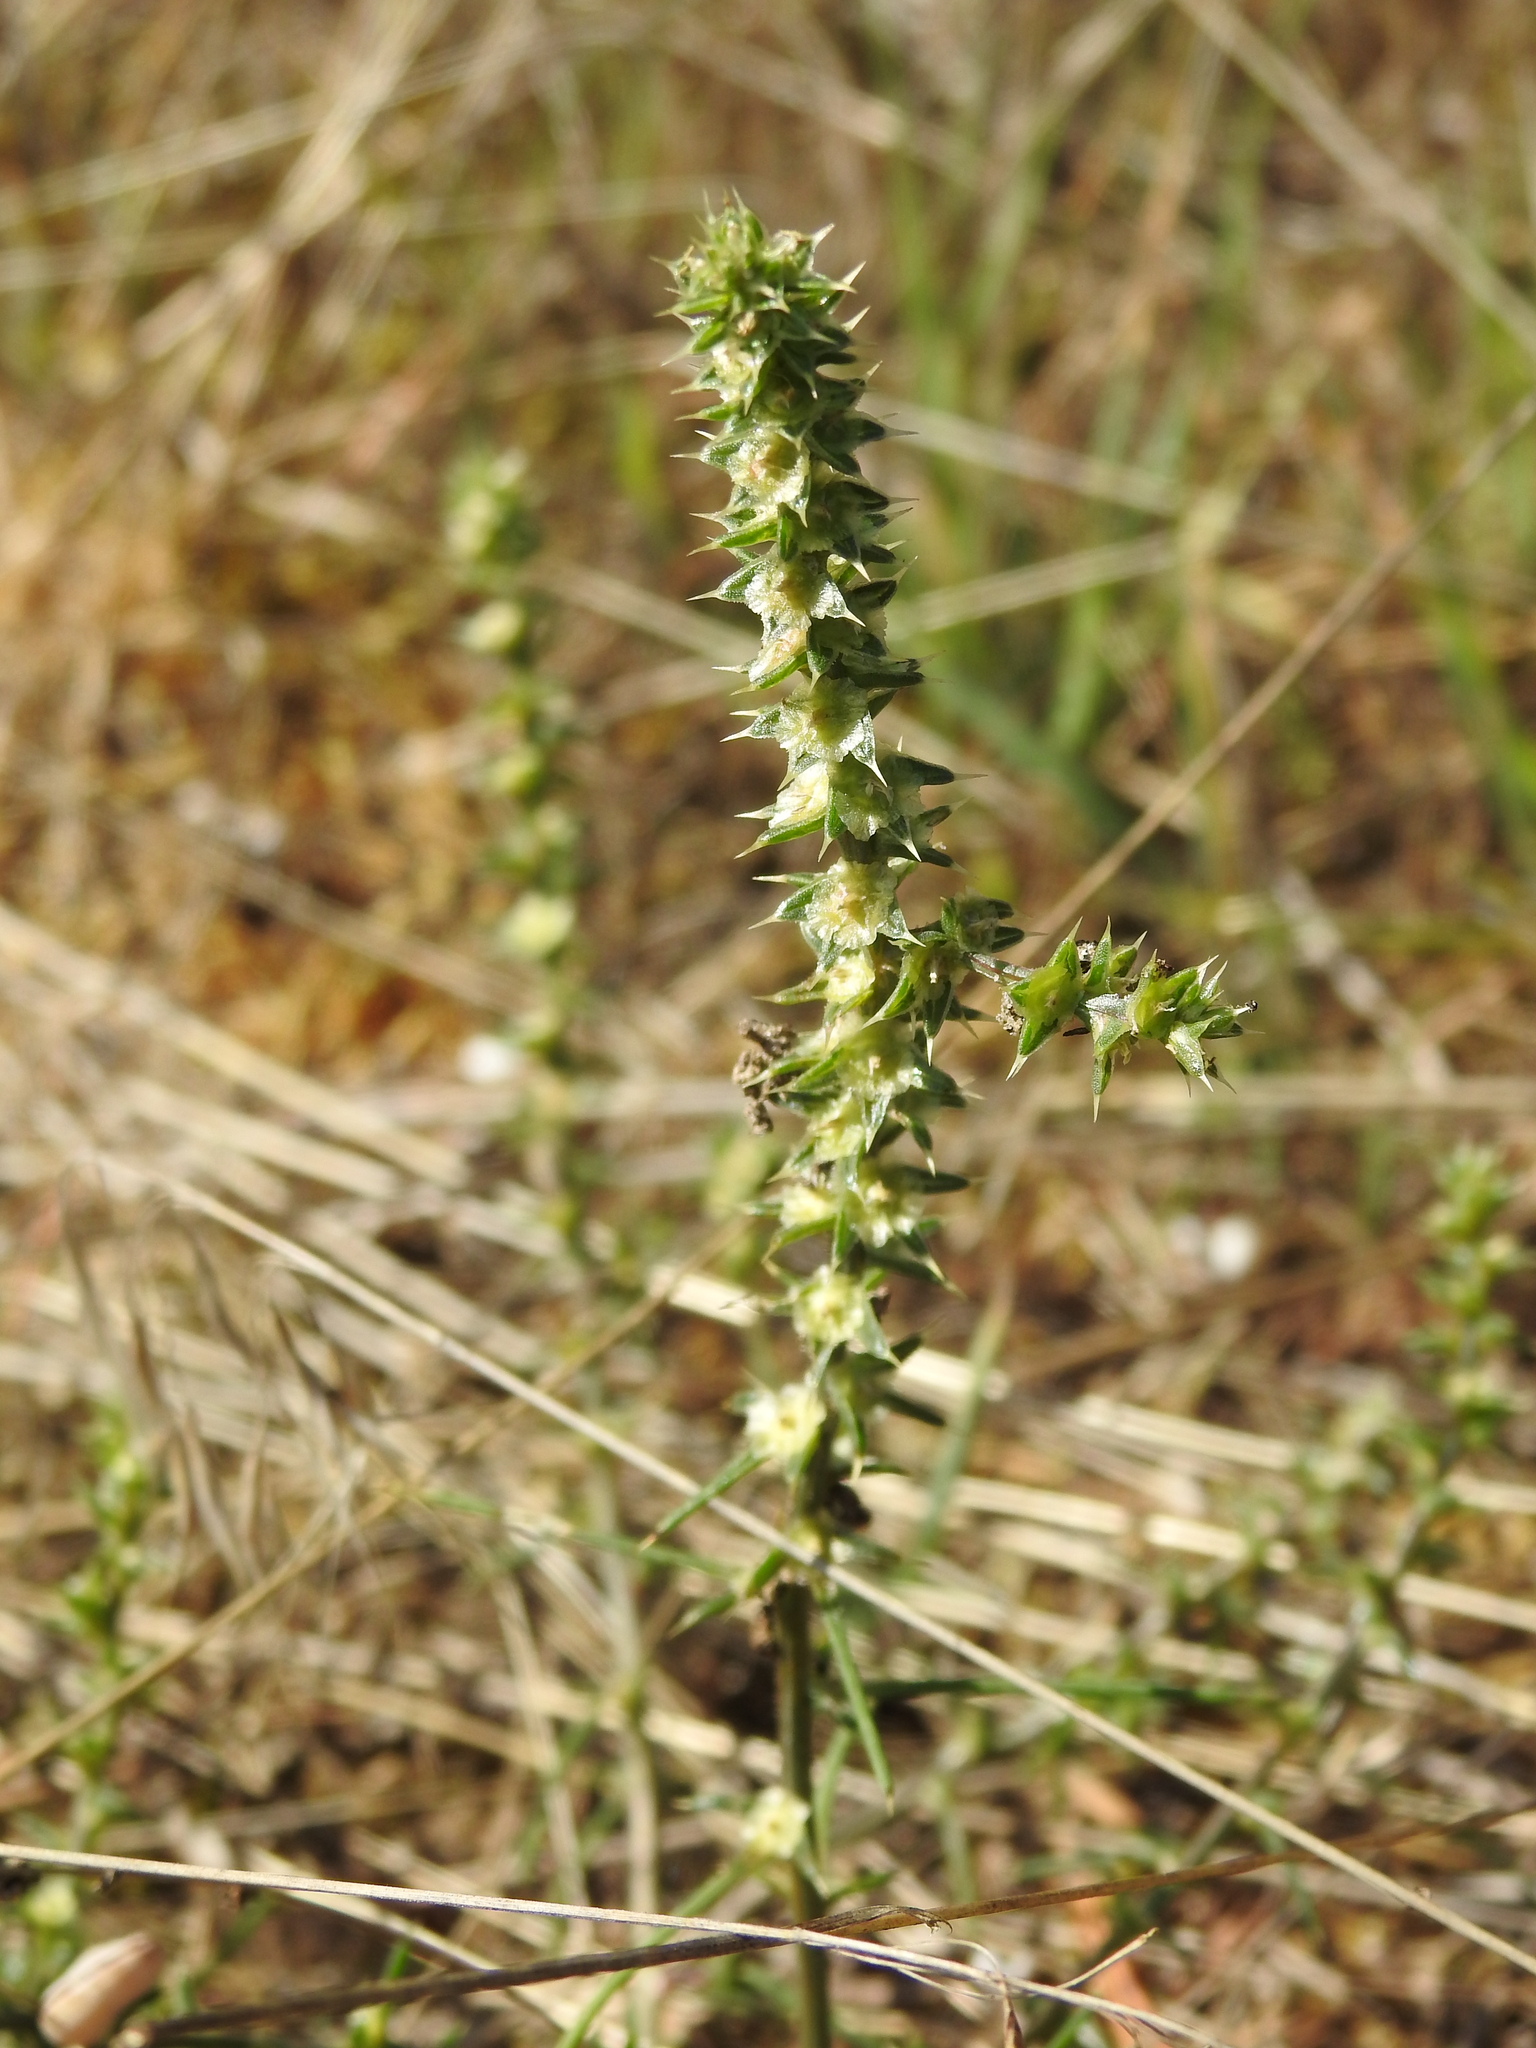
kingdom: Plantae
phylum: Tracheophyta
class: Magnoliopsida
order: Caryophyllales
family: Amaranthaceae
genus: Salsola
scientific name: Salsola tragus
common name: Prickly russian thistle
